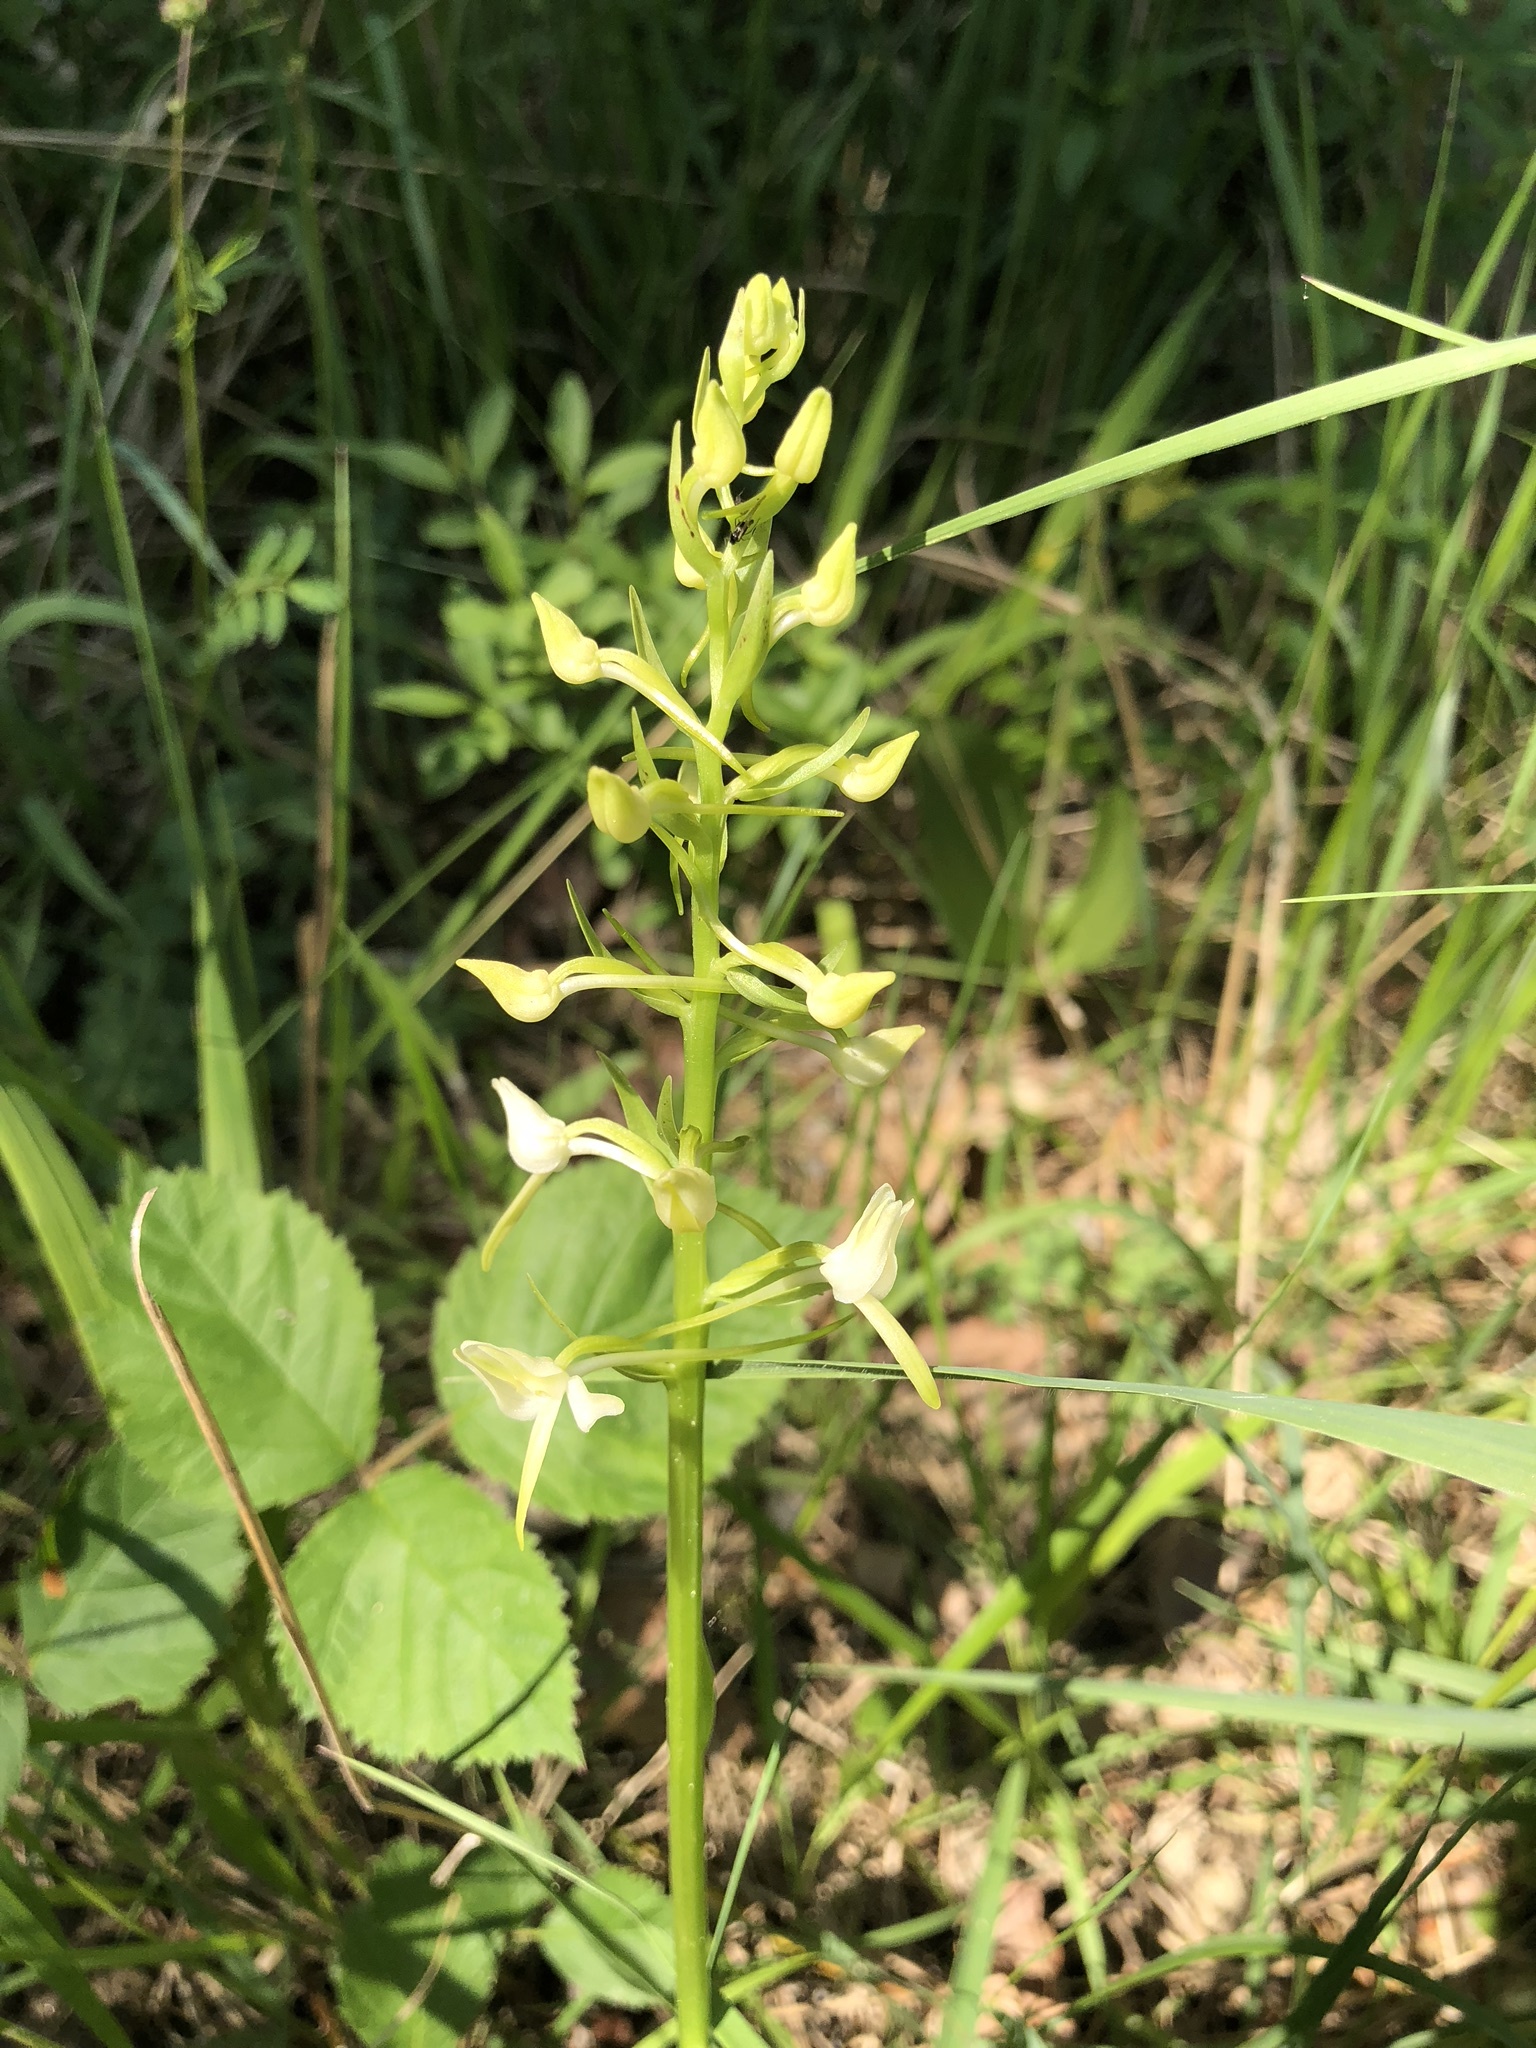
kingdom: Plantae
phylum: Tracheophyta
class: Liliopsida
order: Asparagales
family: Orchidaceae
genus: Platanthera
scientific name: Platanthera bifolia
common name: Lesser butterfly-orchid
